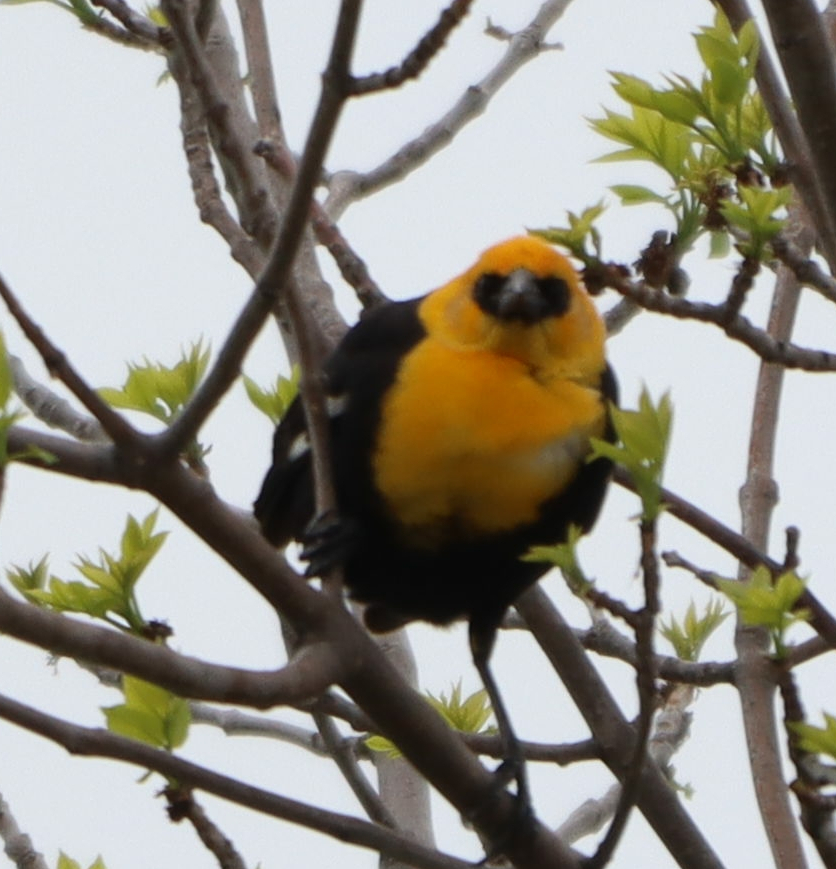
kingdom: Animalia
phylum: Chordata
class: Aves
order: Passeriformes
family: Icteridae
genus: Xanthocephalus
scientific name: Xanthocephalus xanthocephalus
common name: Yellow-headed blackbird
